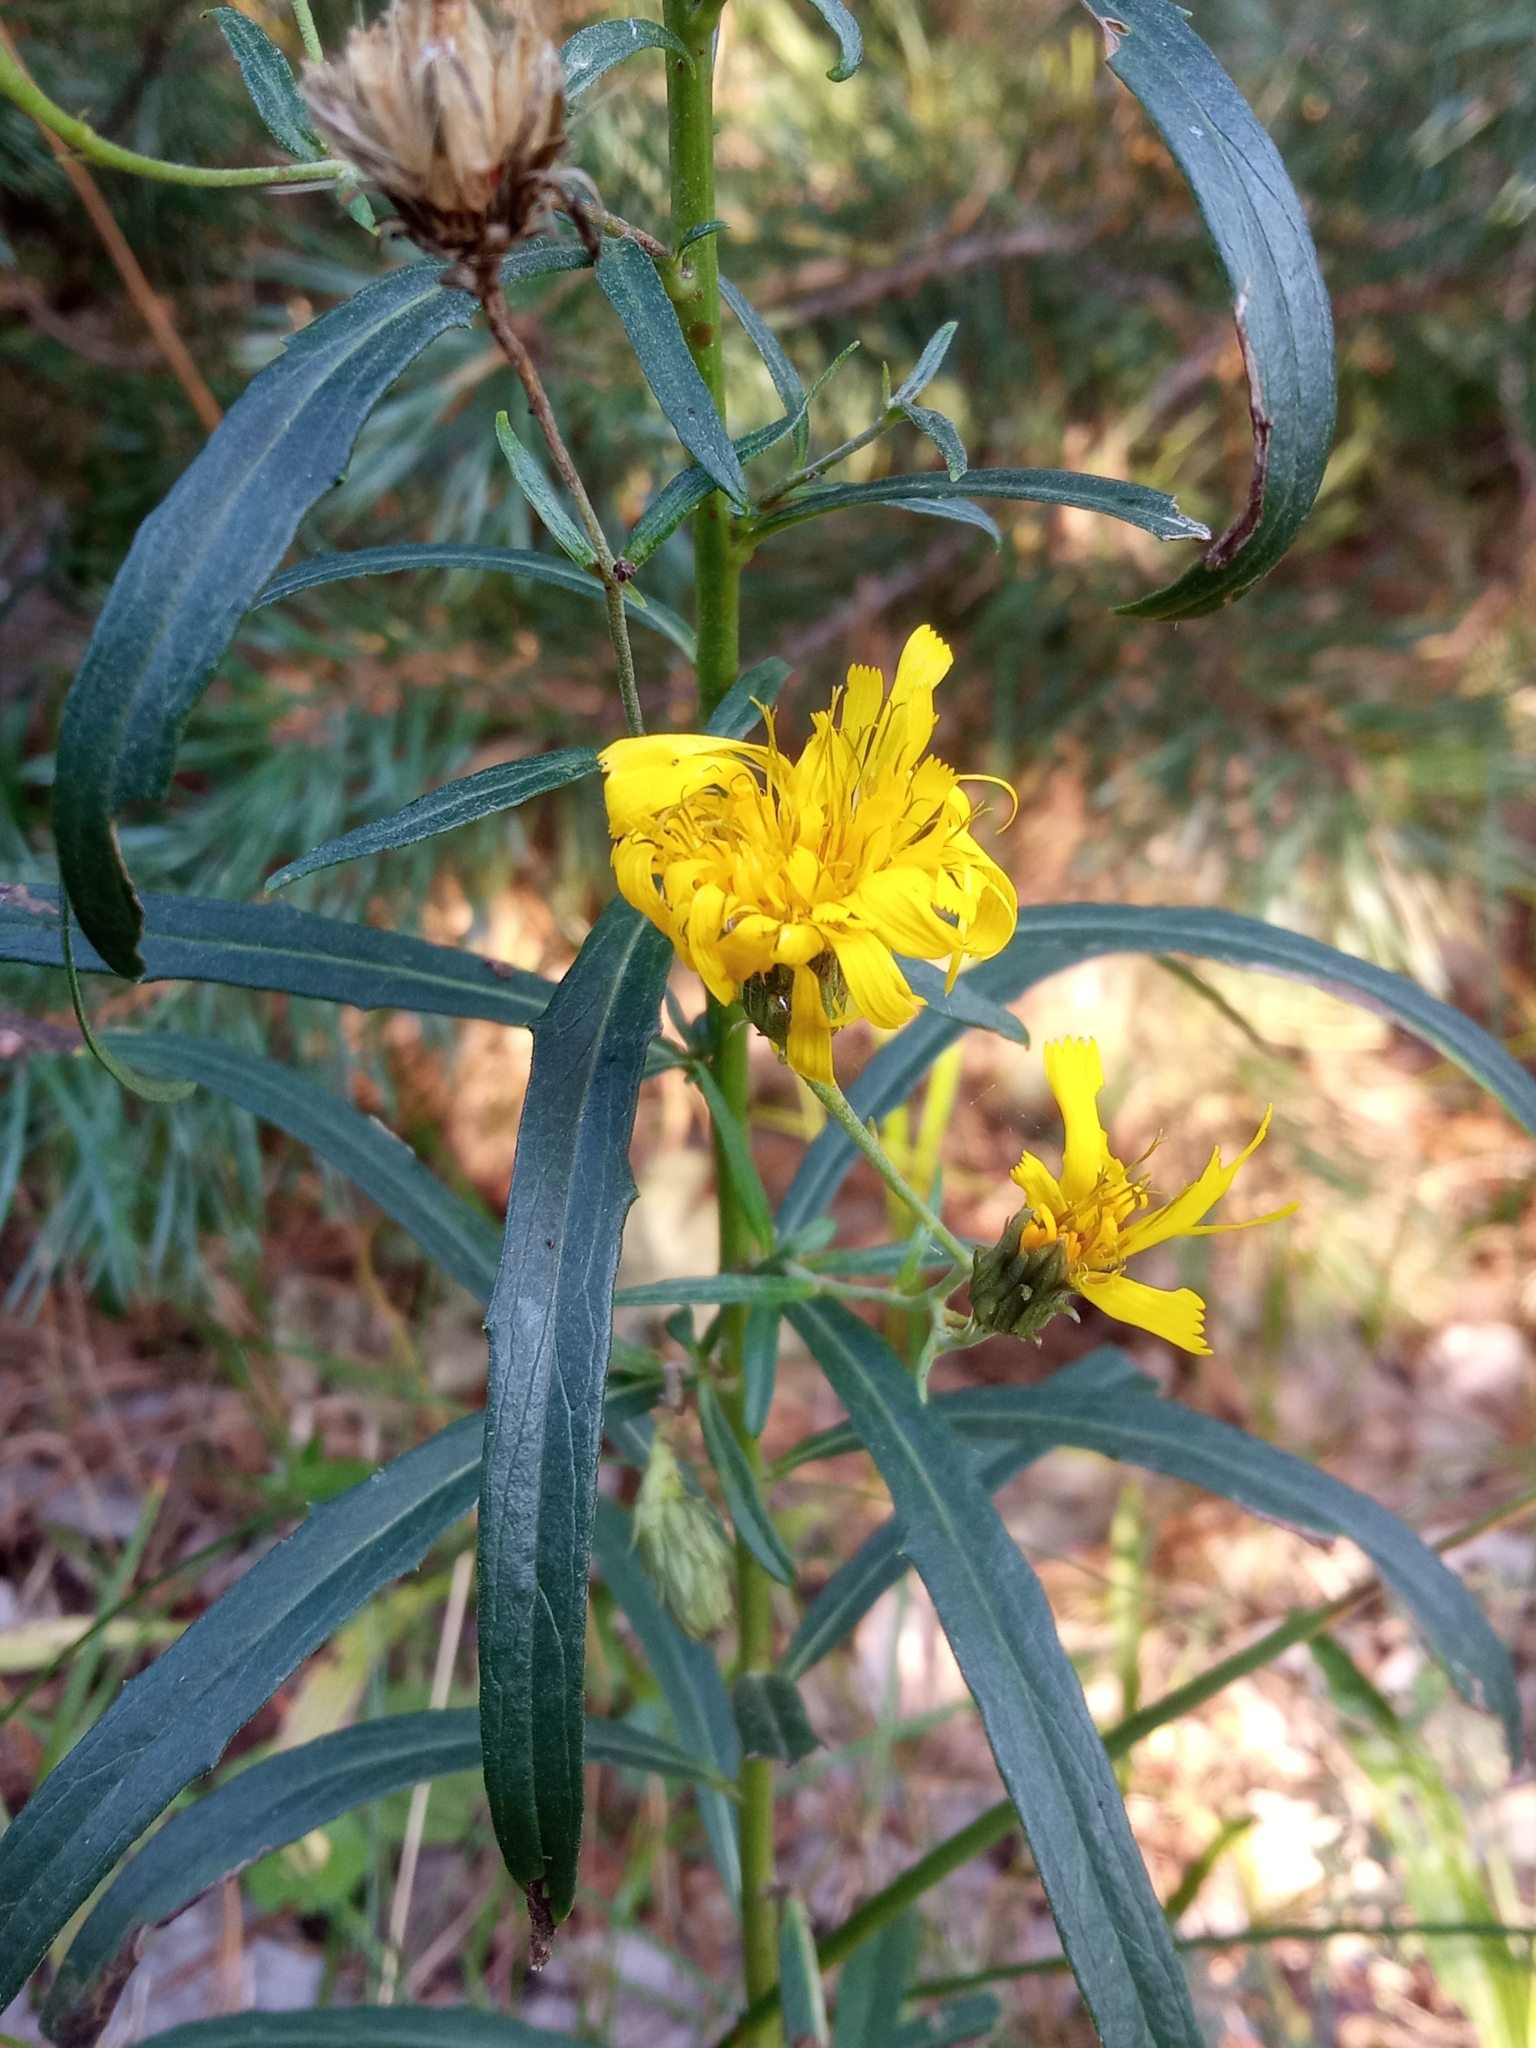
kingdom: Plantae
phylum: Tracheophyta
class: Magnoliopsida
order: Asterales
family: Asteraceae
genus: Hieracium
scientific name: Hieracium umbellatum
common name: Northern hawkweed
